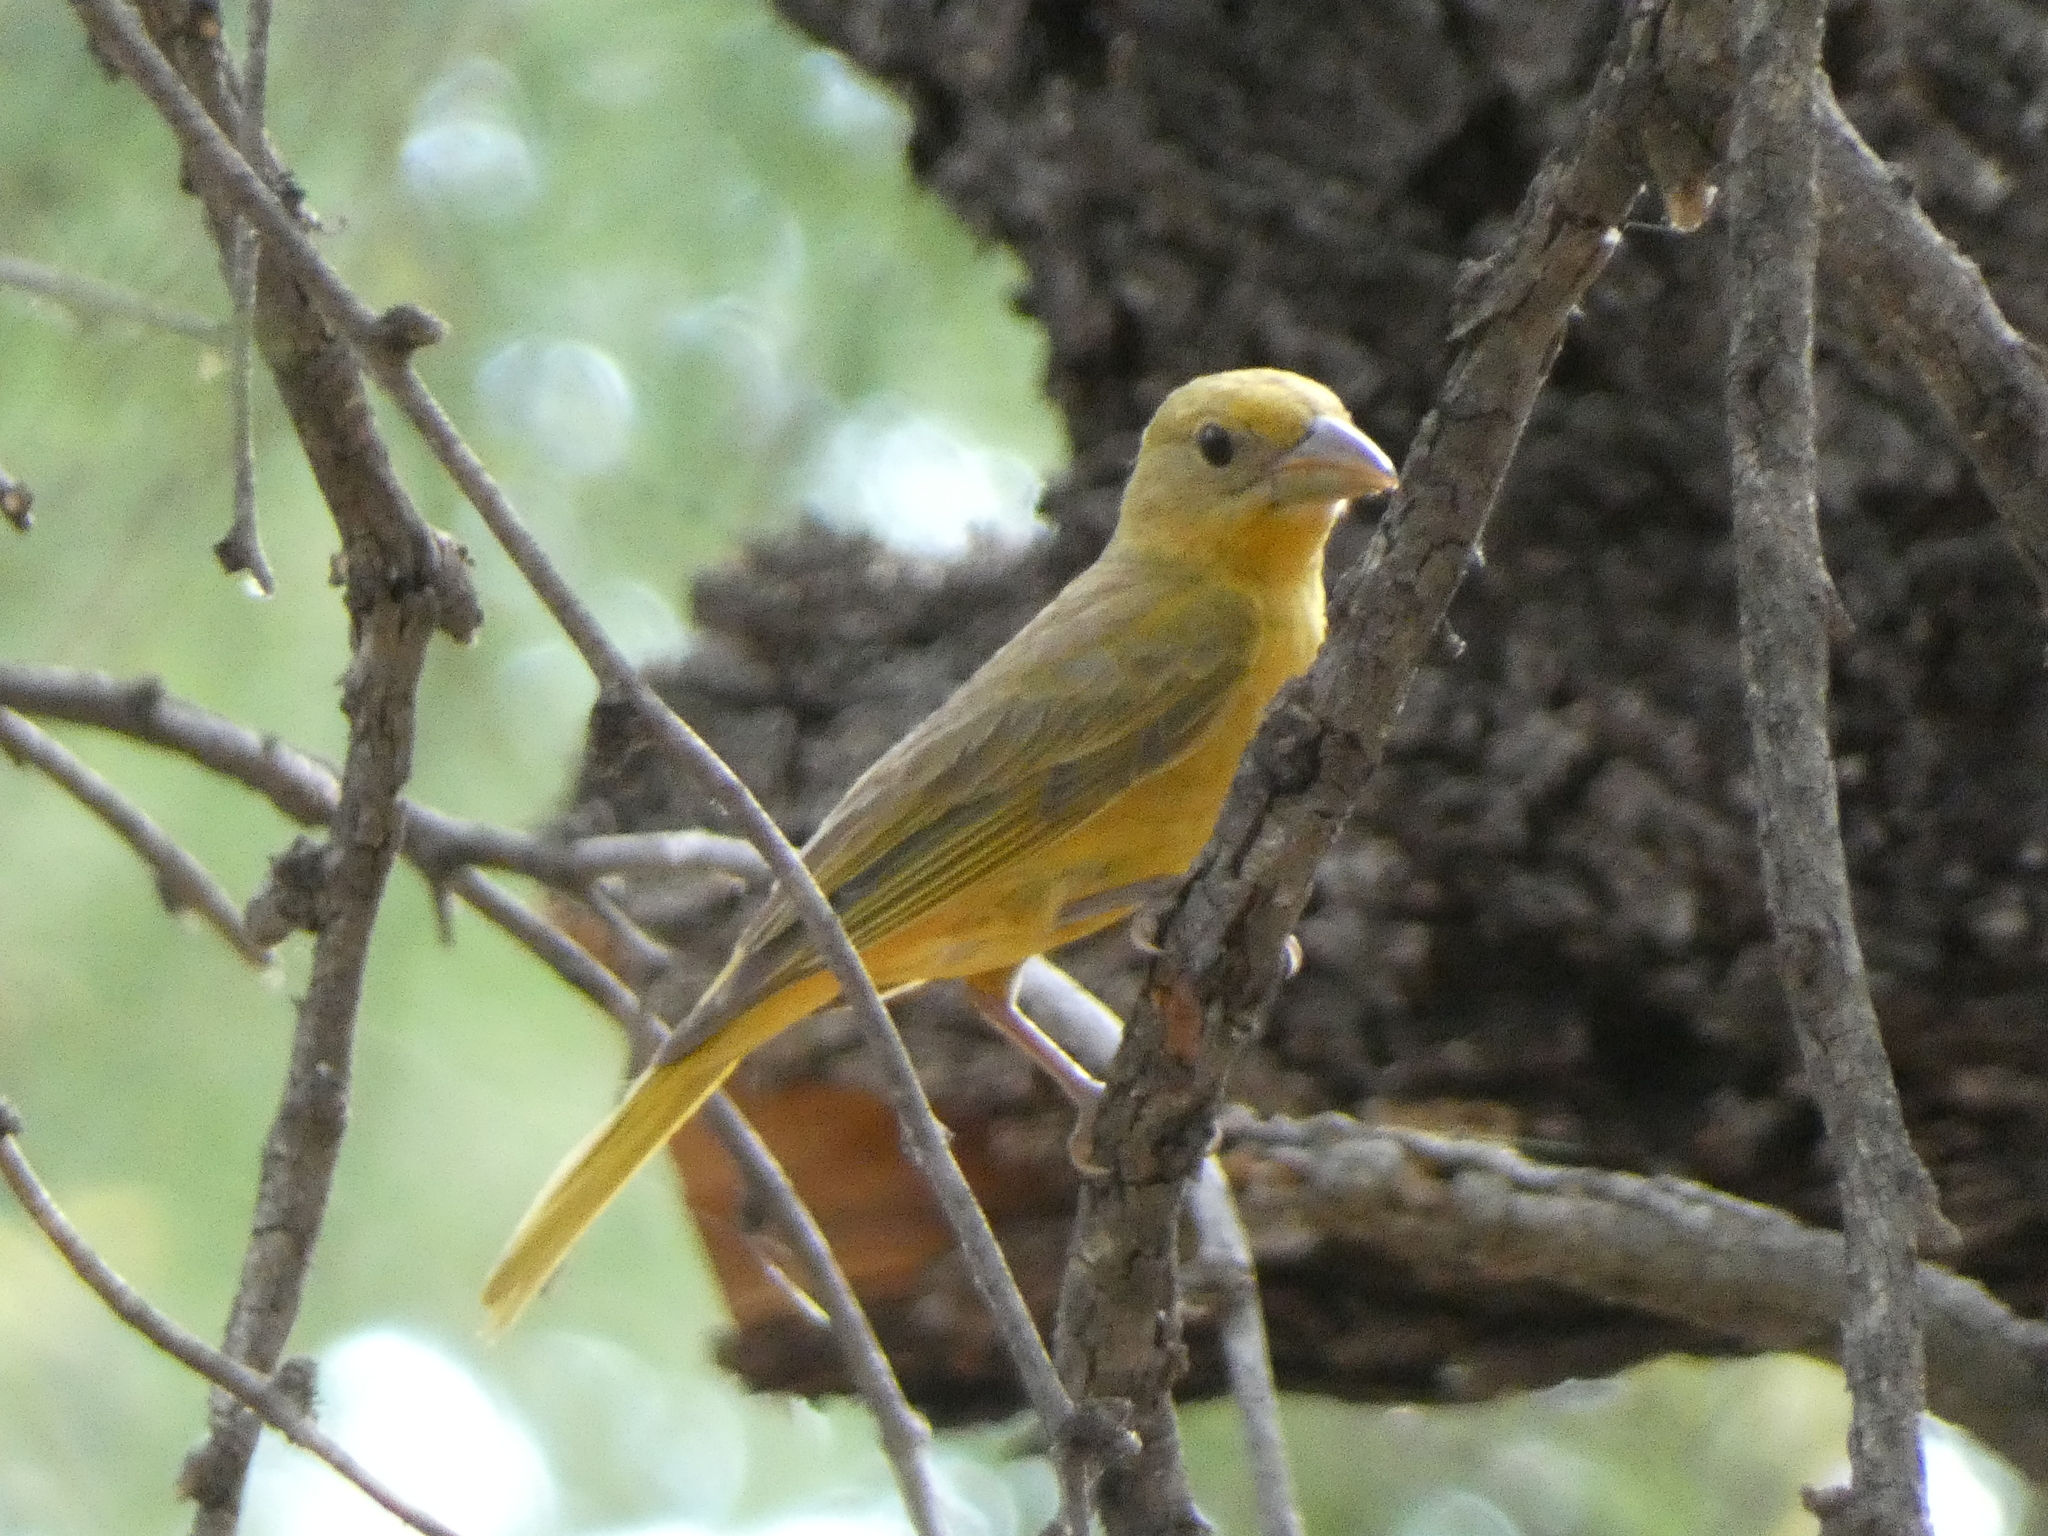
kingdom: Animalia
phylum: Chordata
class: Aves
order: Passeriformes
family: Cardinalidae
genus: Piranga
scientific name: Piranga rubra
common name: Summer tanager
